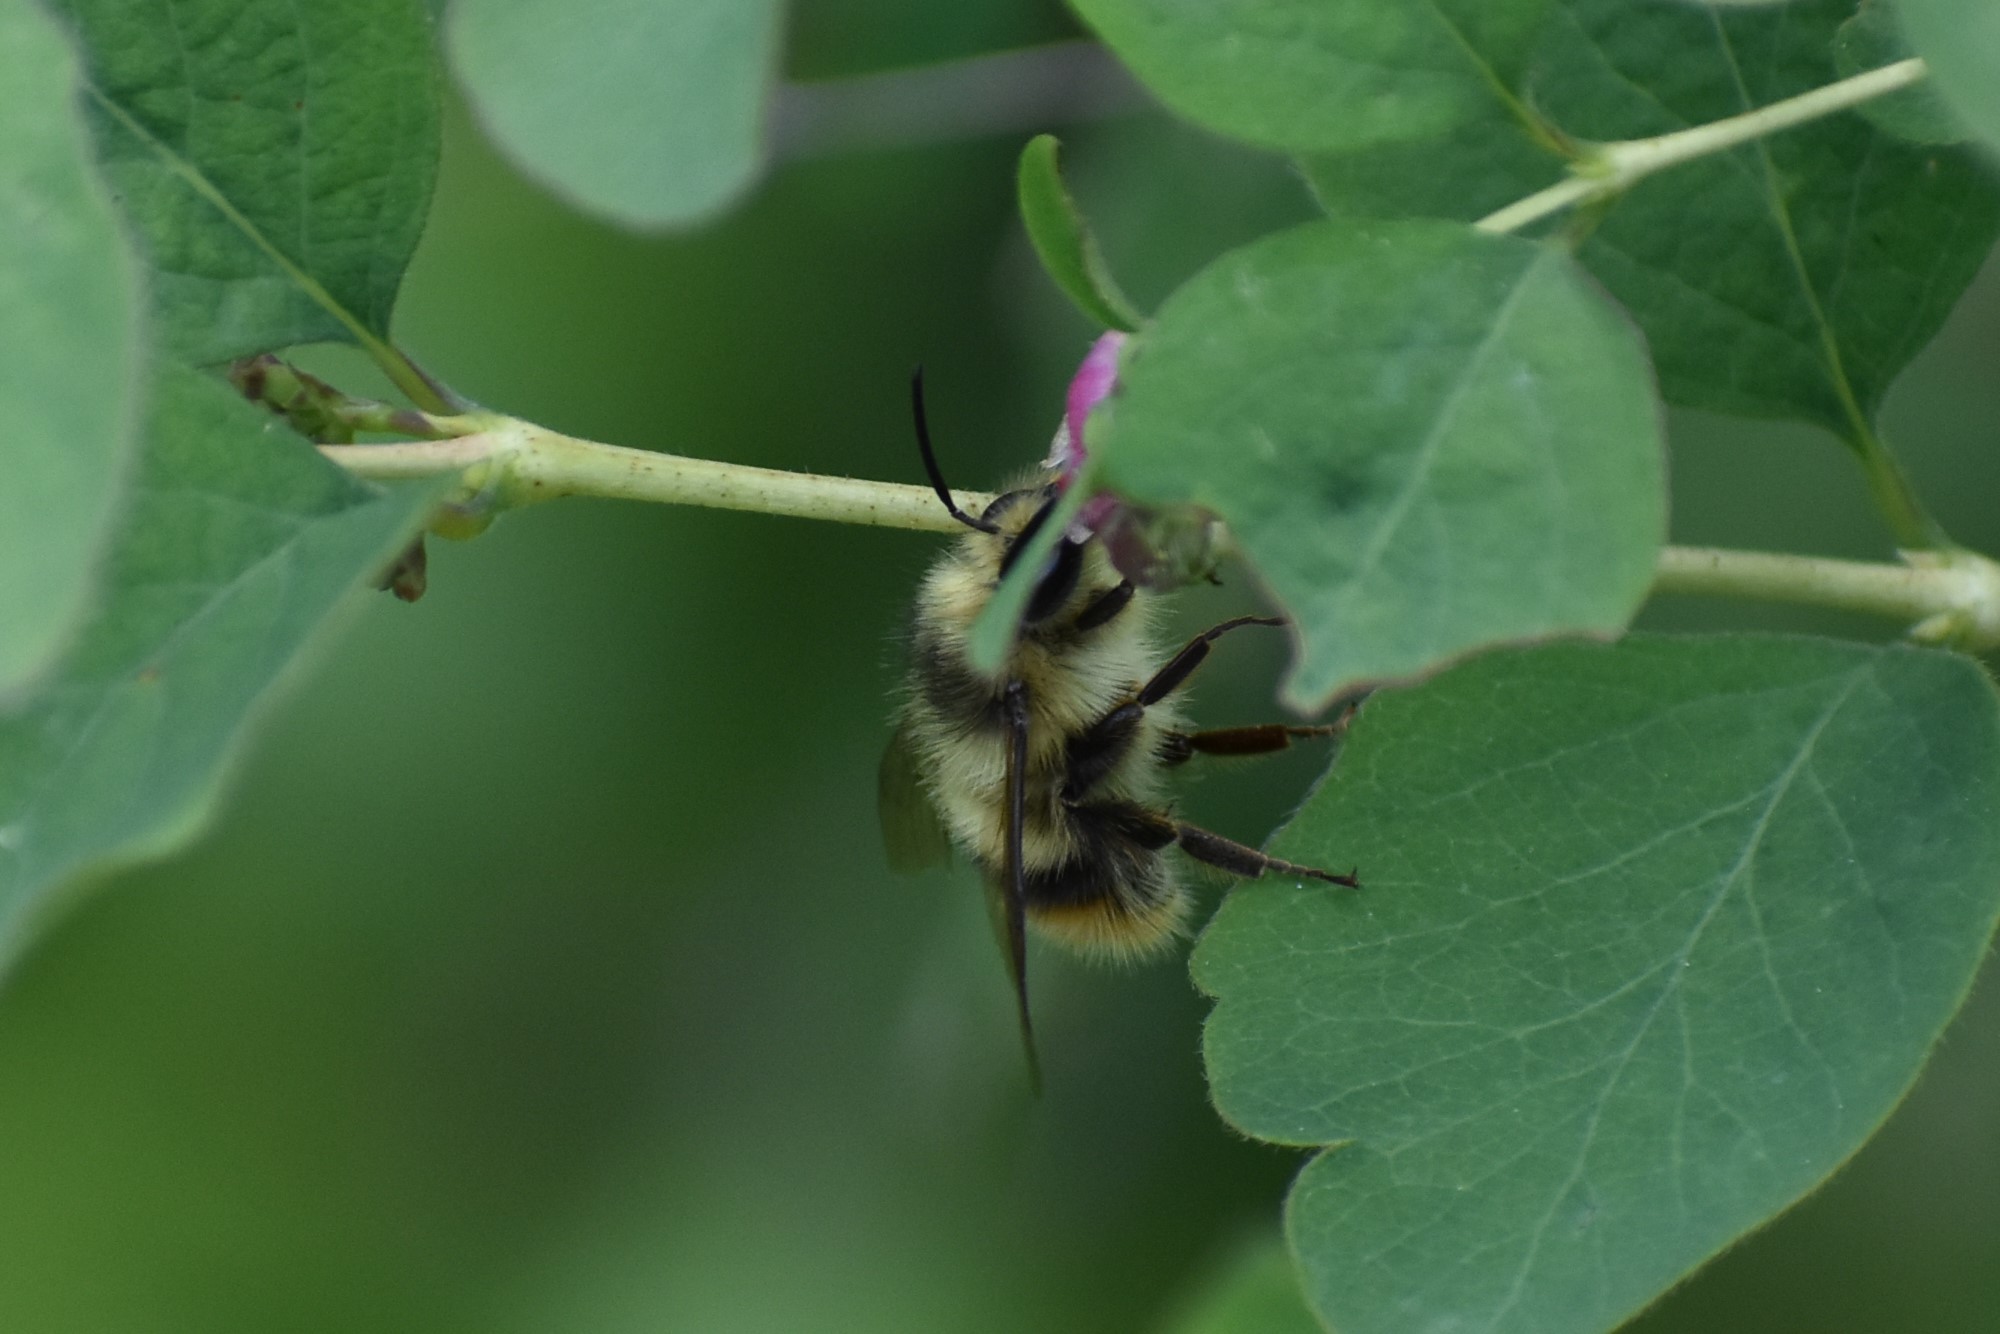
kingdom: Animalia
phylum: Arthropoda
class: Insecta
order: Hymenoptera
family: Apidae
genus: Bombus
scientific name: Bombus mixtus
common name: Fuzzy-horned bumble bee
